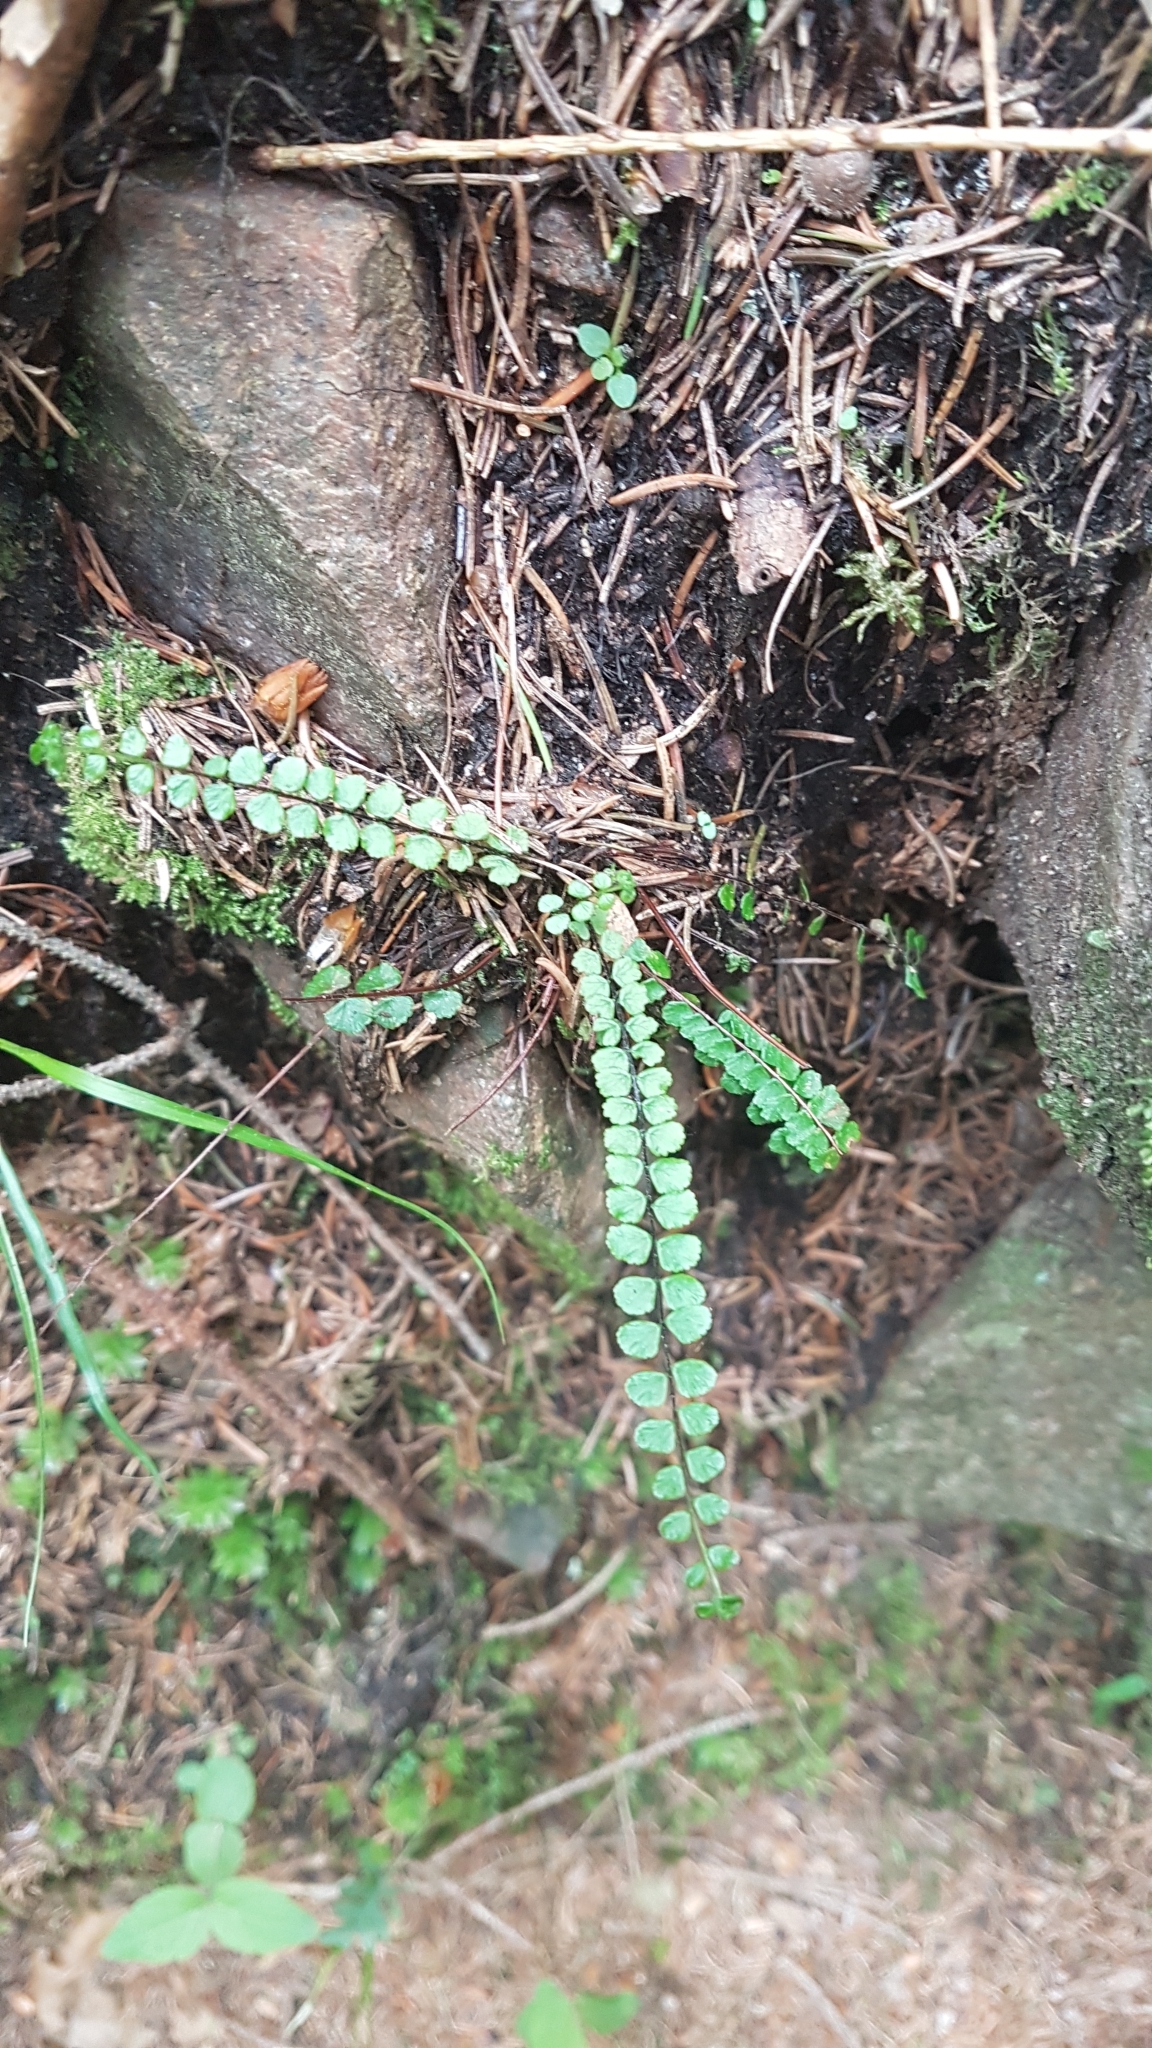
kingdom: Plantae
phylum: Tracheophyta
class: Polypodiopsida
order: Polypodiales
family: Aspleniaceae
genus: Asplenium
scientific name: Asplenium trichomanes
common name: Maidenhair spleenwort
